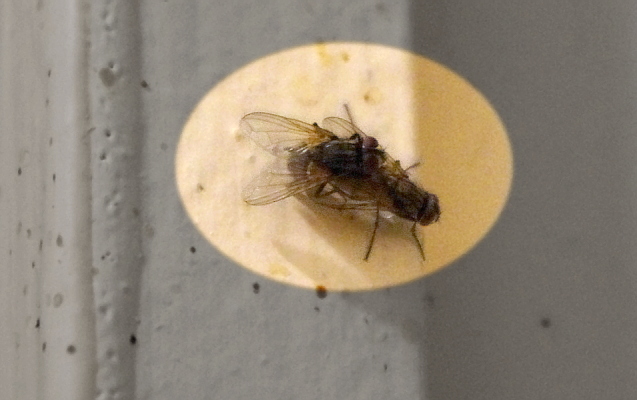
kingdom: Animalia
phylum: Arthropoda
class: Insecta
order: Diptera
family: Muscidae
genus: Musca
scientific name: Musca domestica
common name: House fly
